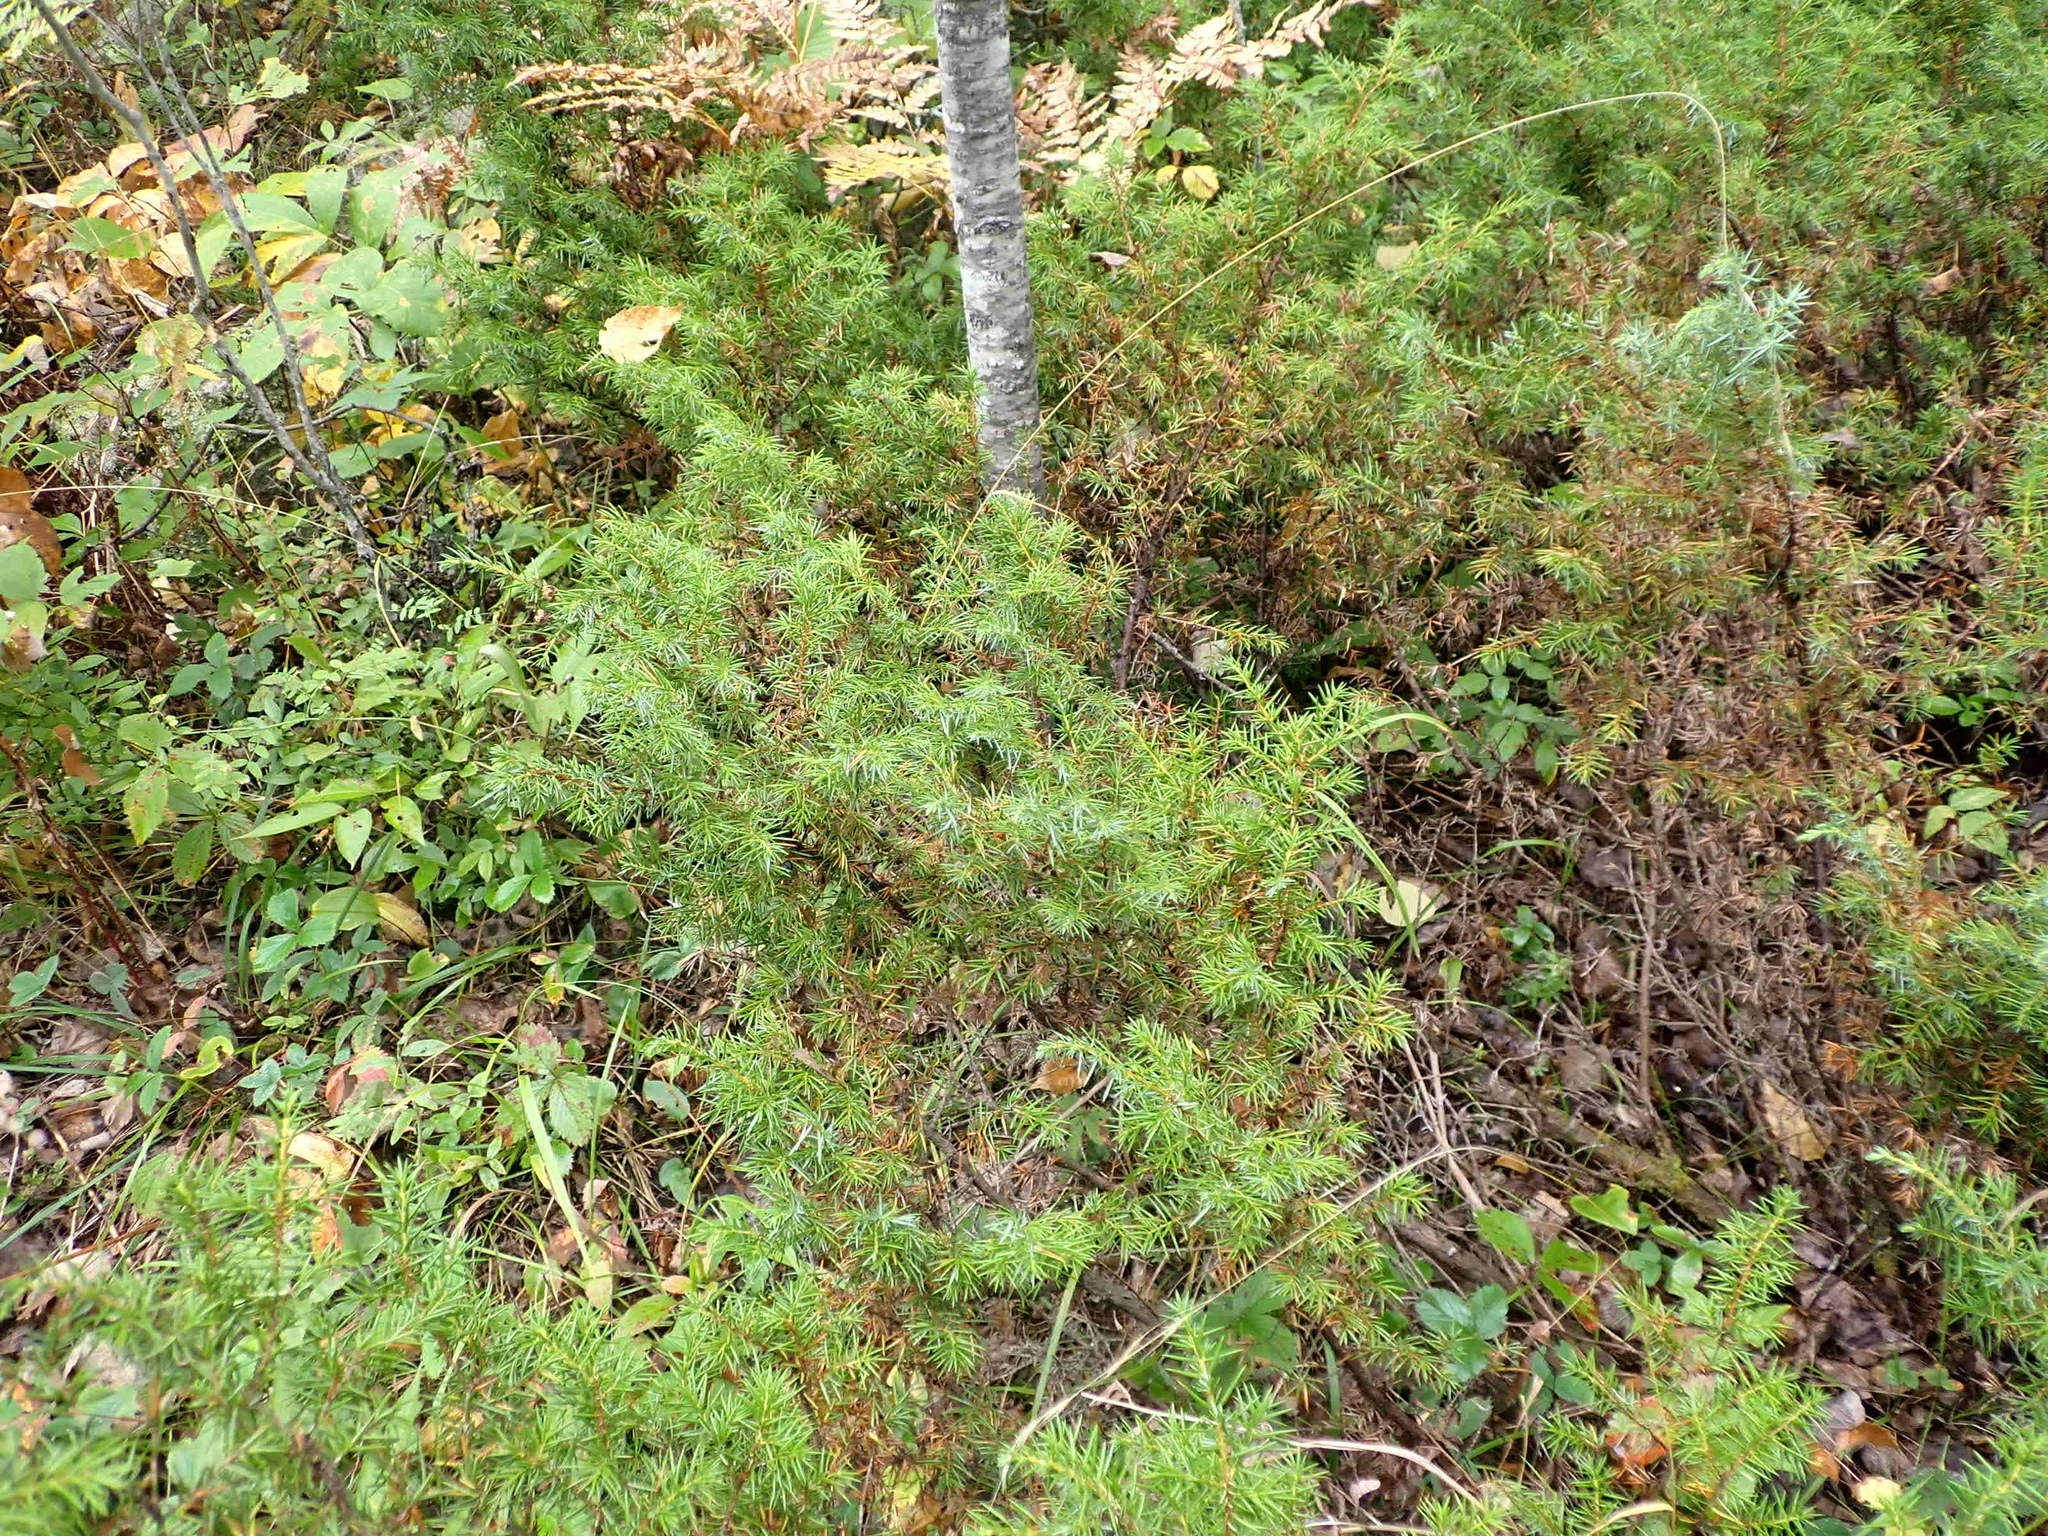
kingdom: Plantae
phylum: Tracheophyta
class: Pinopsida
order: Pinales
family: Cupressaceae
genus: Juniperus
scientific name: Juniperus communis
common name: Common juniper
